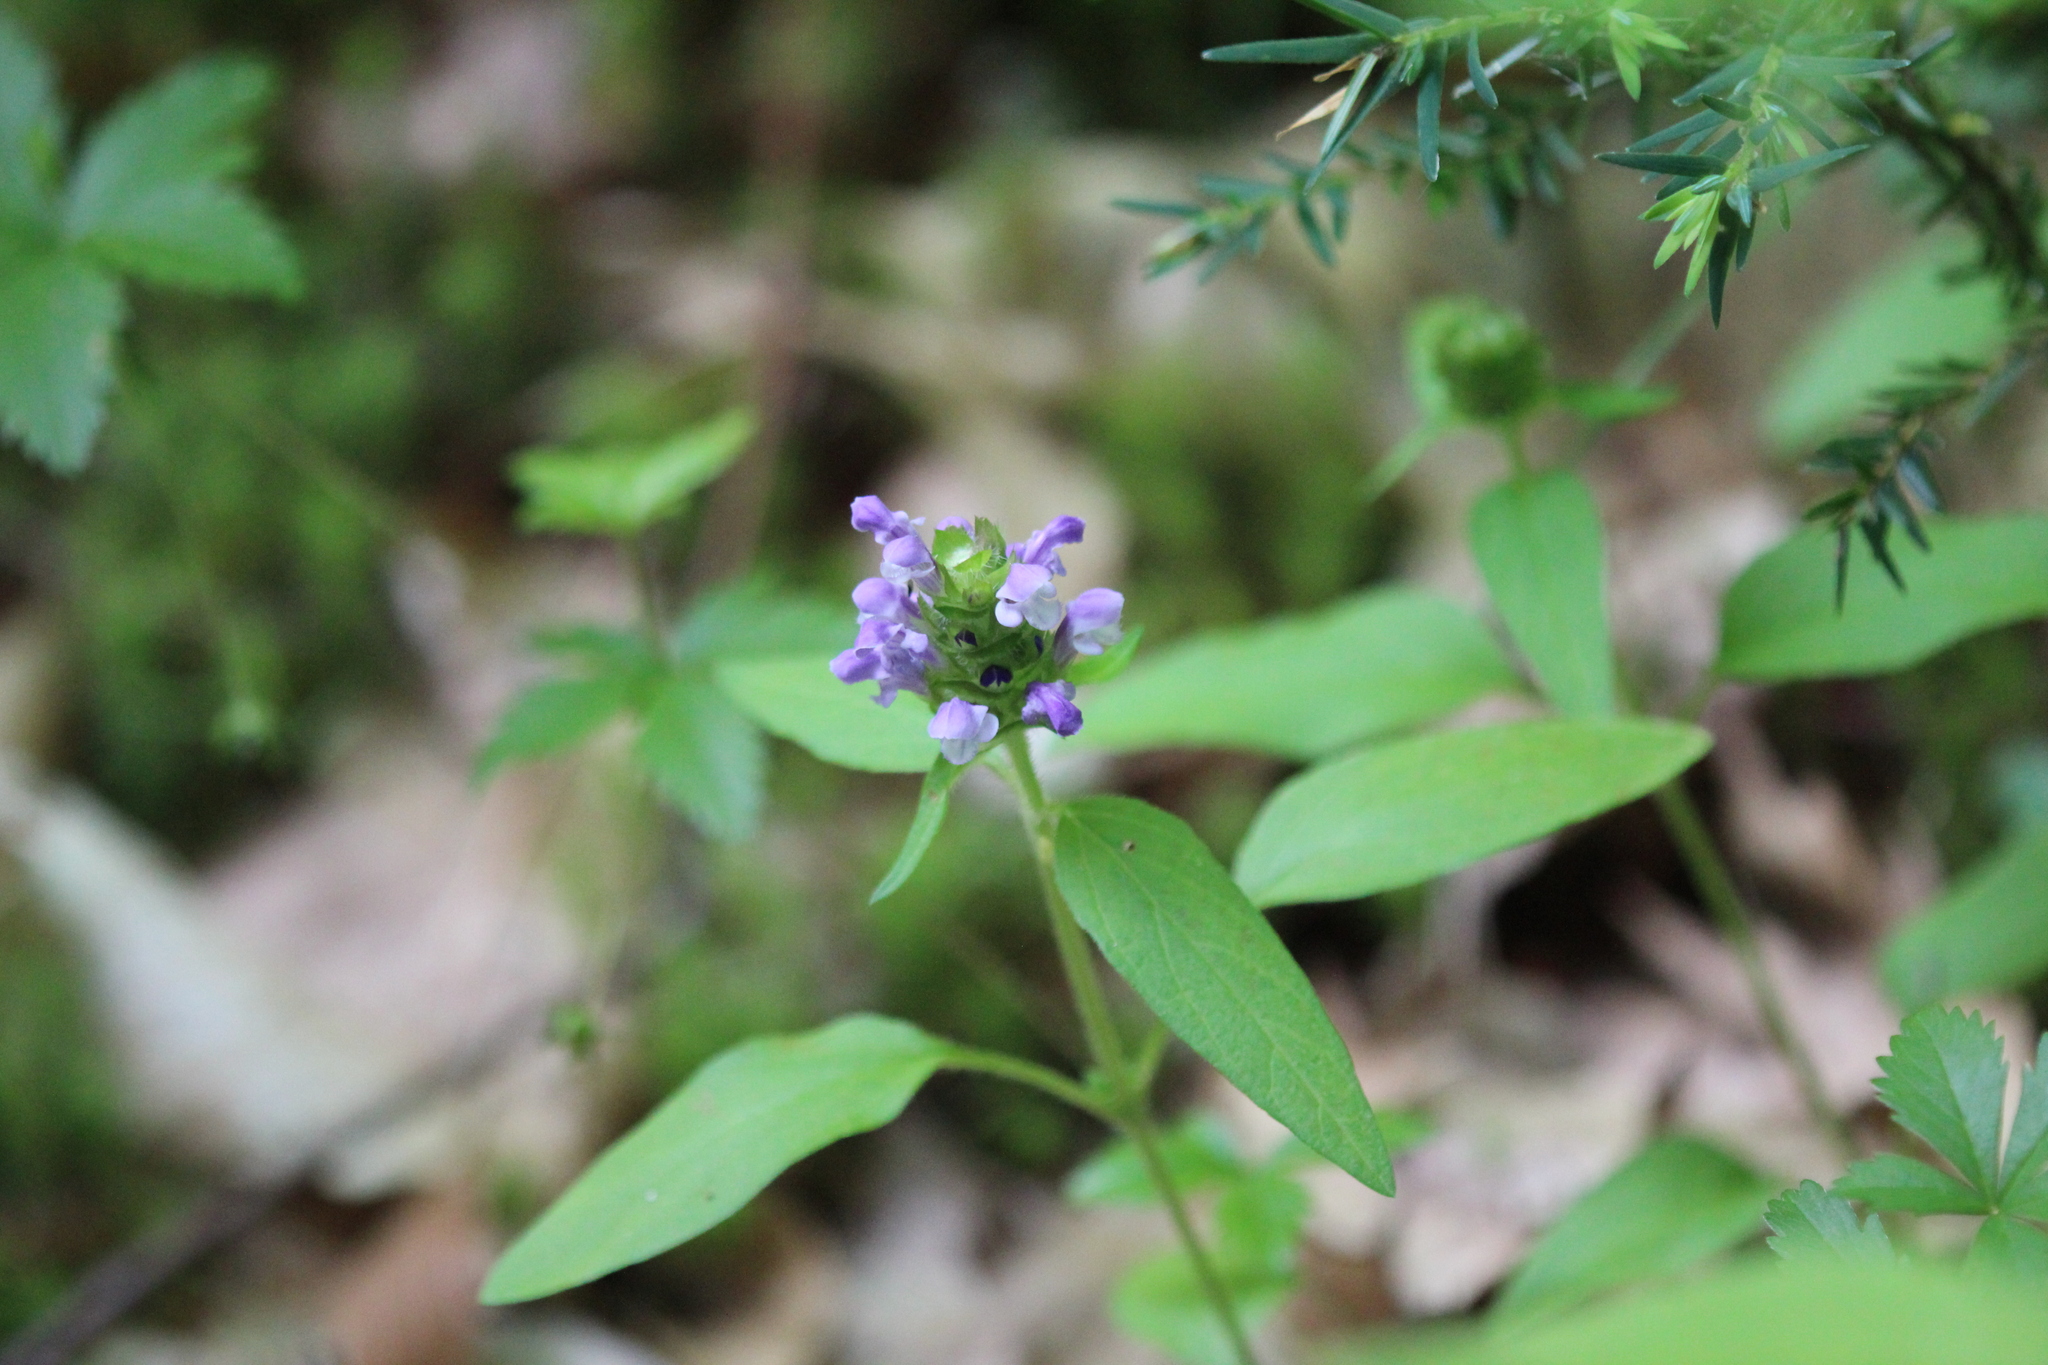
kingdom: Plantae
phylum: Tracheophyta
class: Magnoliopsida
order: Lamiales
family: Lamiaceae
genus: Prunella
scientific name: Prunella vulgaris
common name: Heal-all
